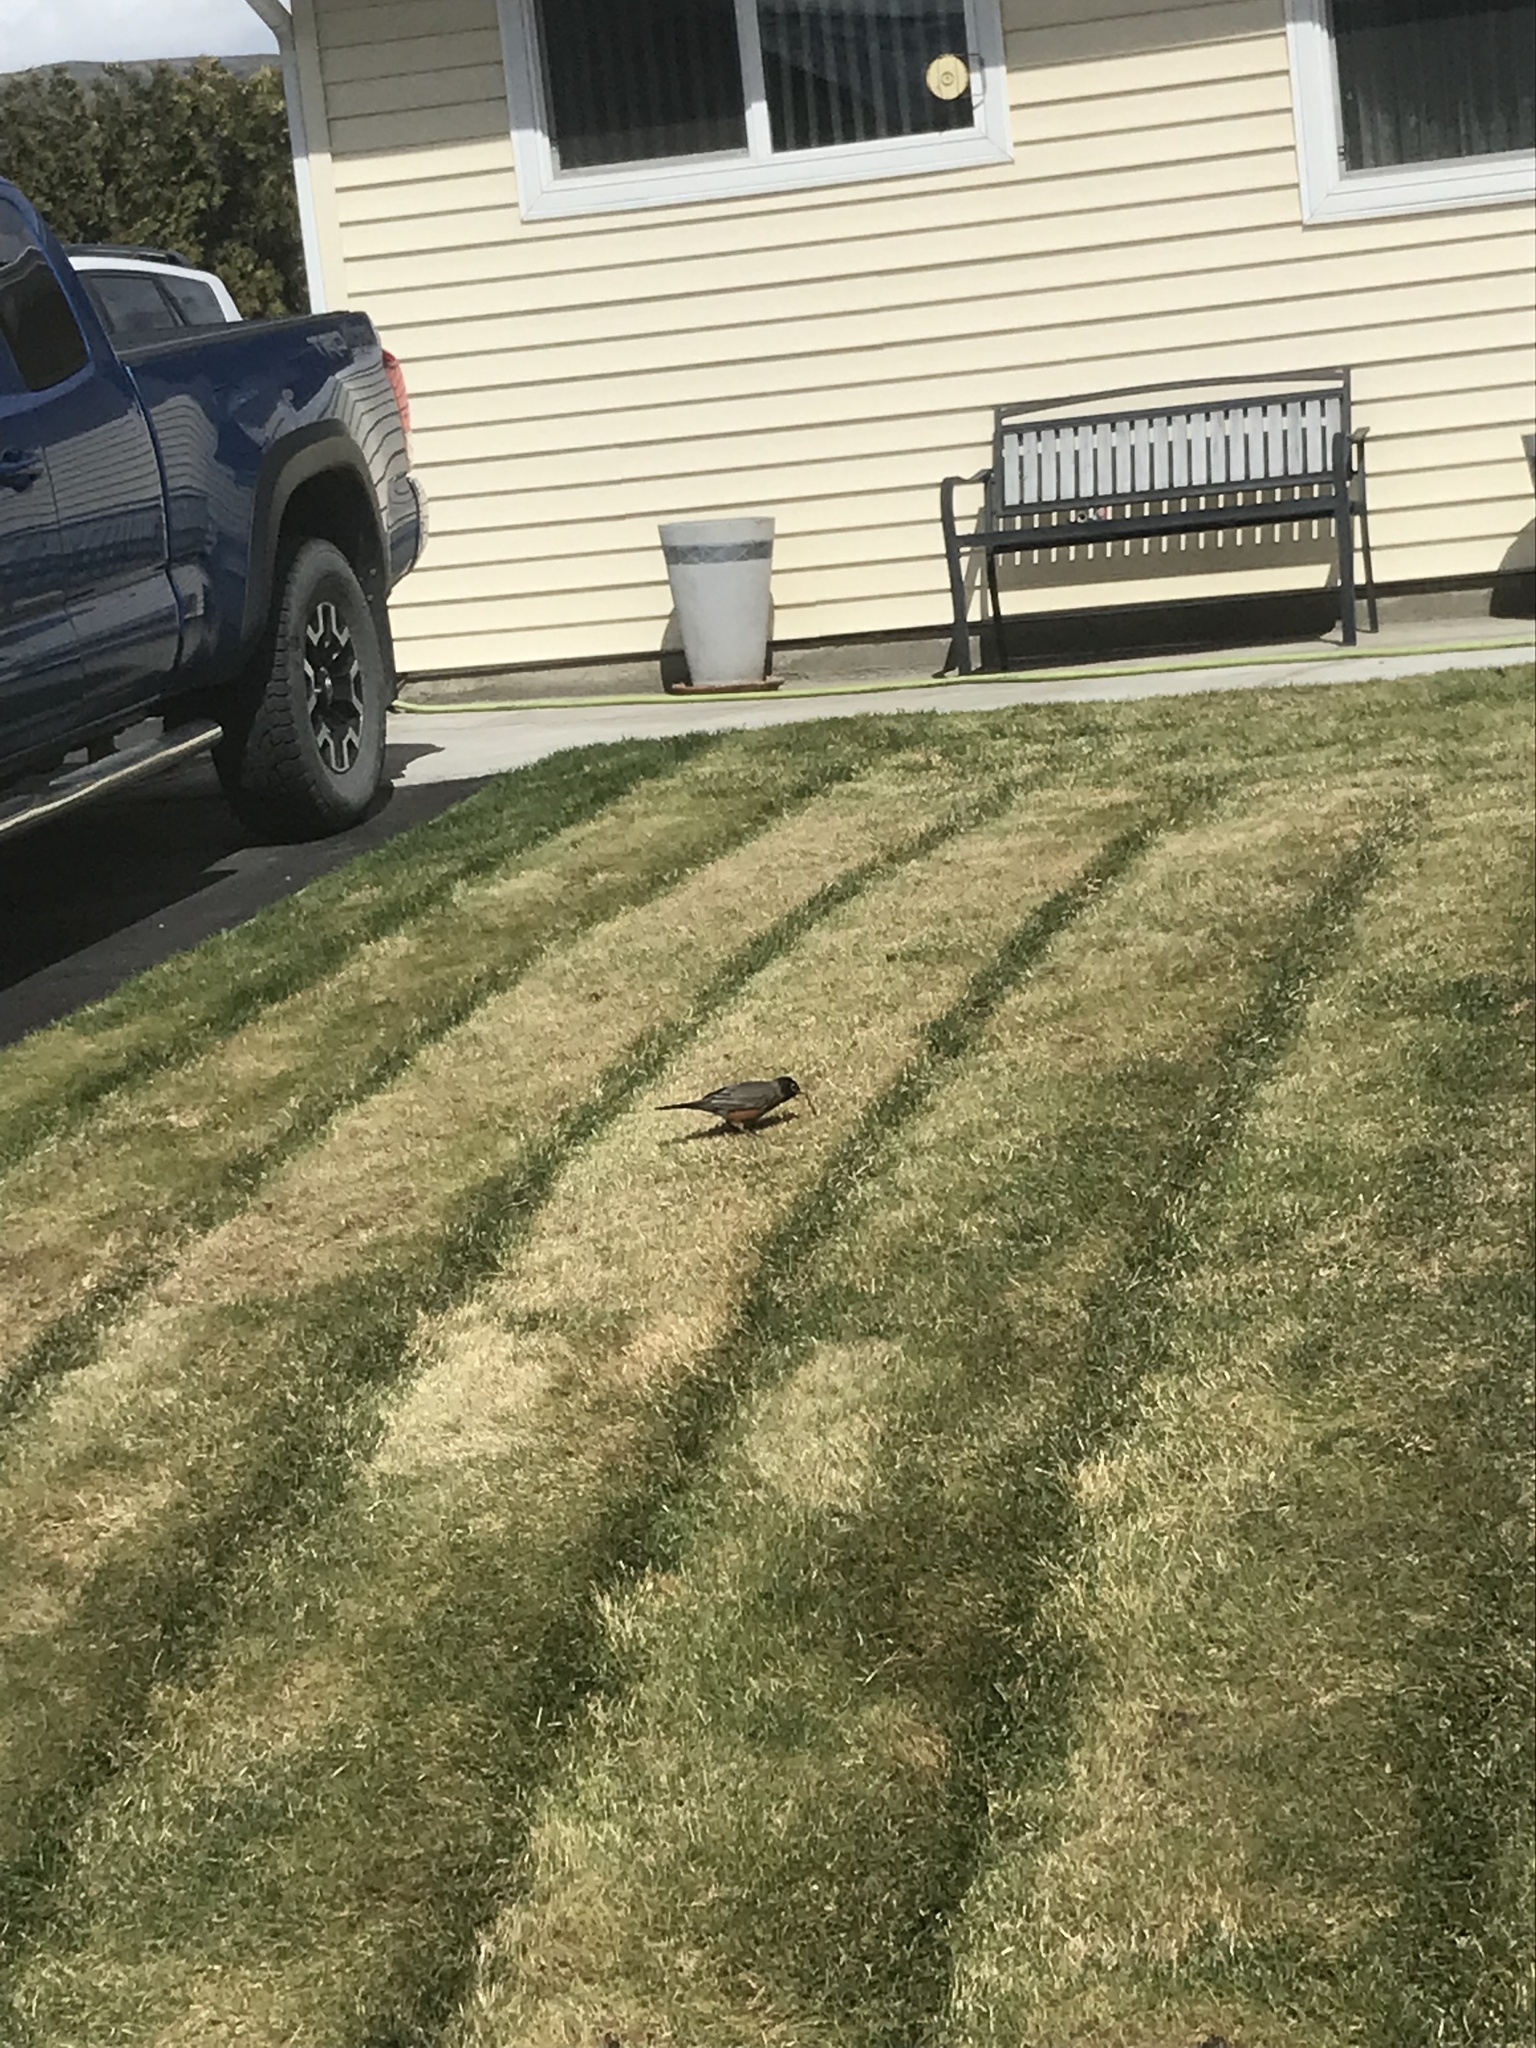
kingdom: Animalia
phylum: Chordata
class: Aves
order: Passeriformes
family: Turdidae
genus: Turdus
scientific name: Turdus migratorius
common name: American robin
